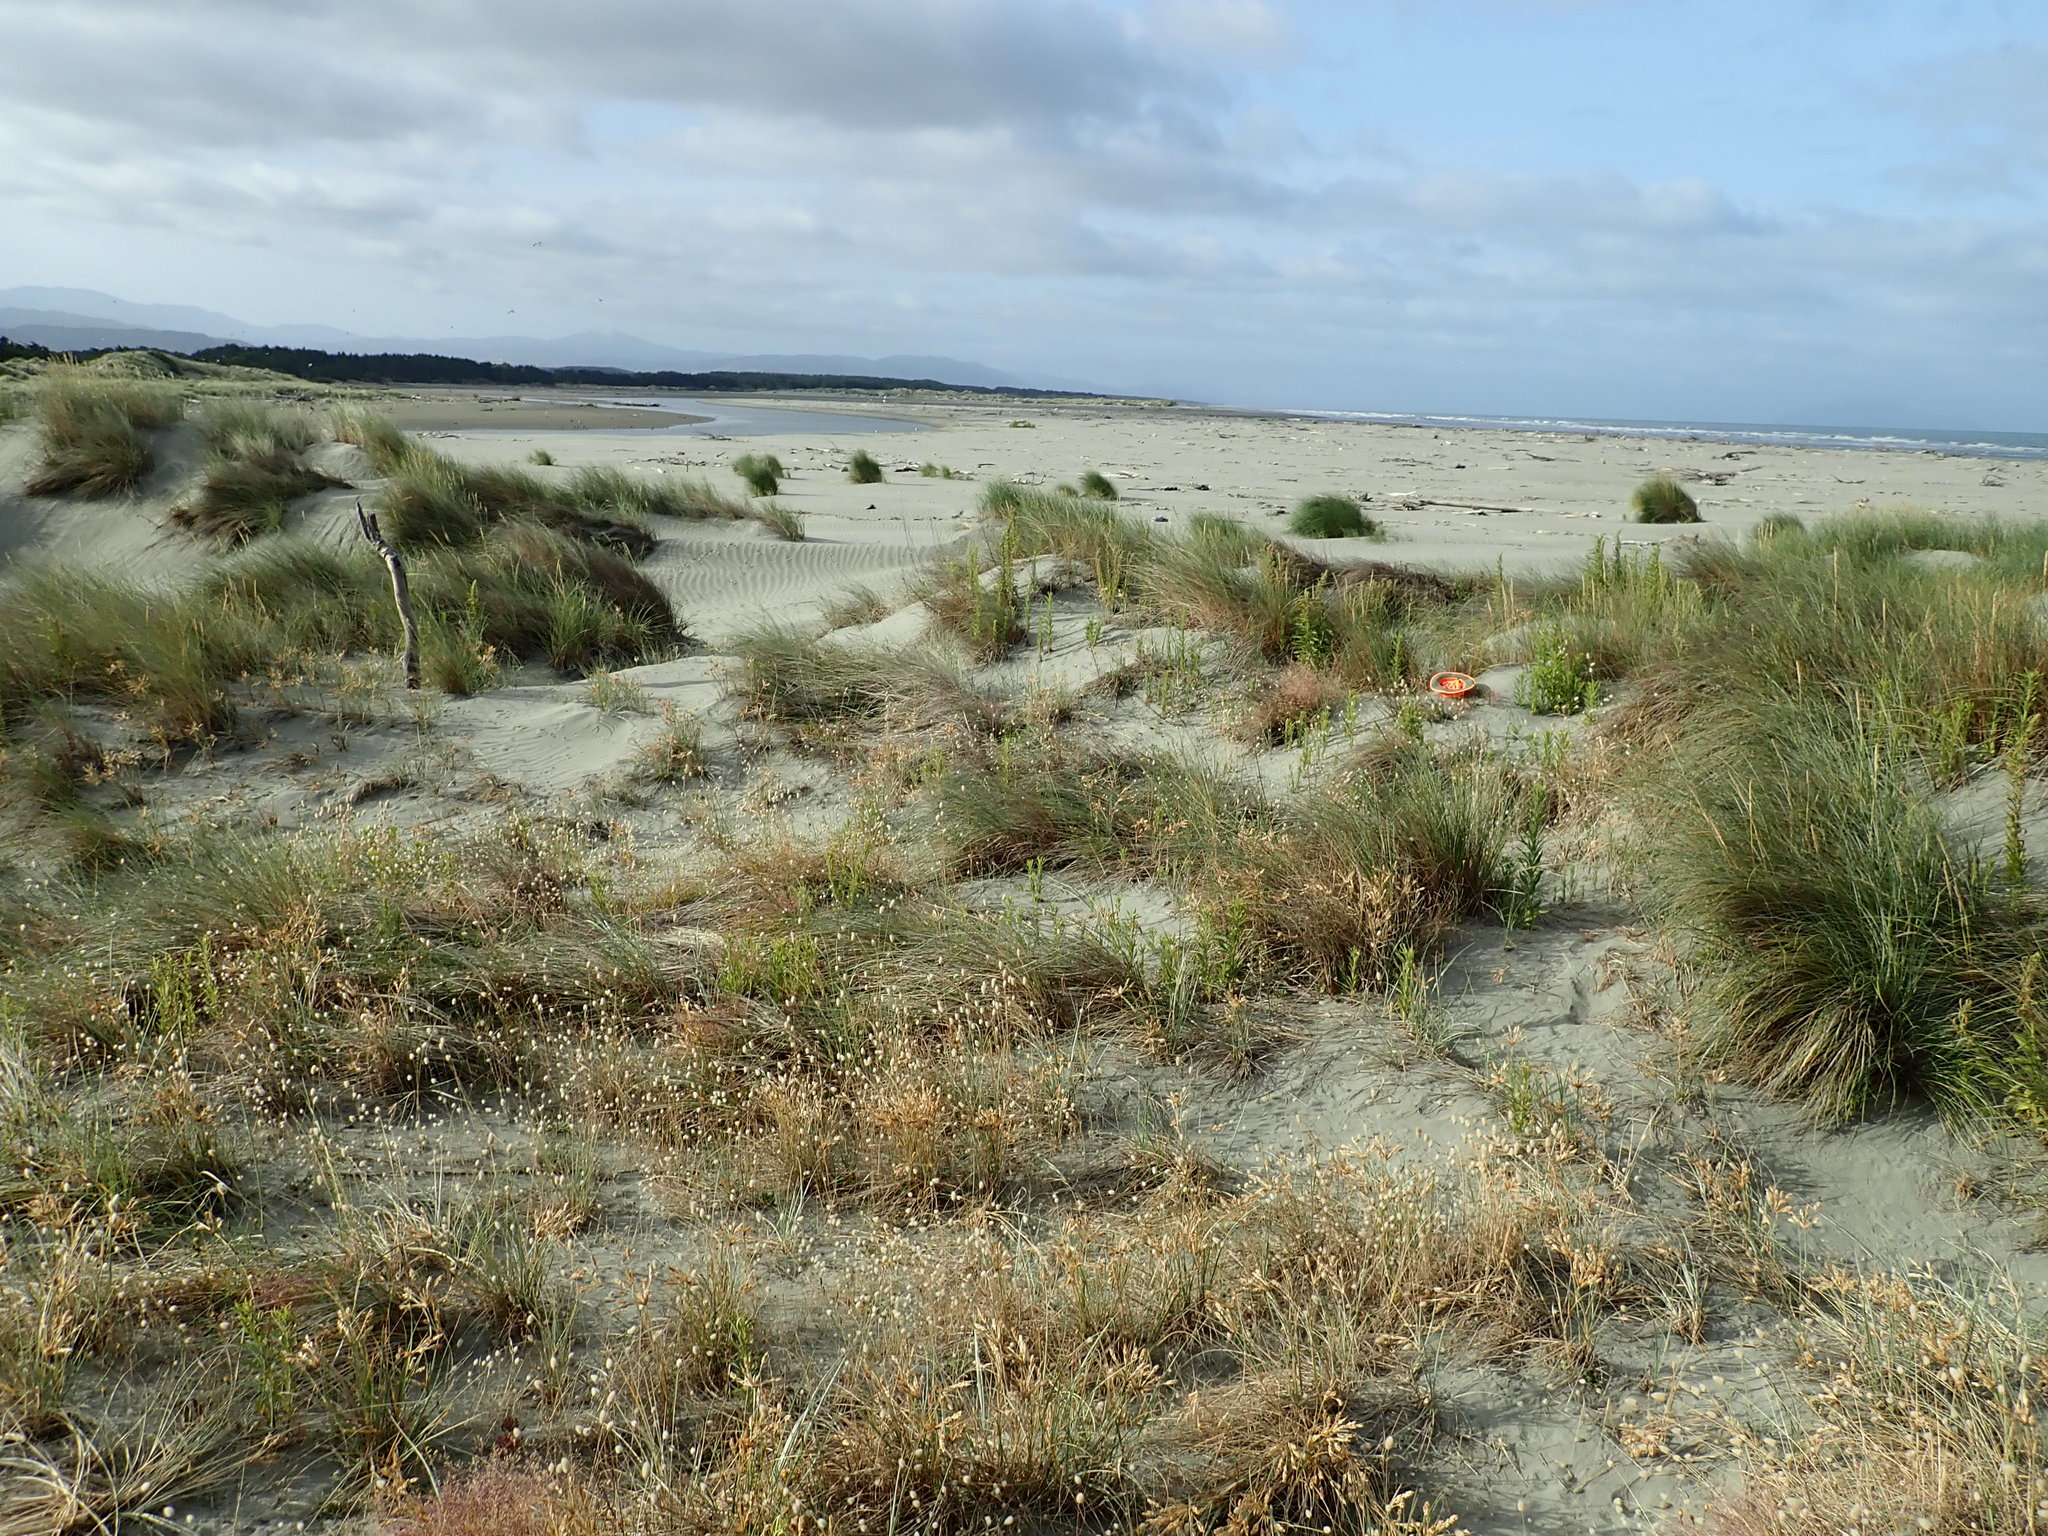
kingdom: Plantae
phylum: Tracheophyta
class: Liliopsida
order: Poales
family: Poaceae
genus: Lachnagrostis
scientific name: Lachnagrostis billardierei
